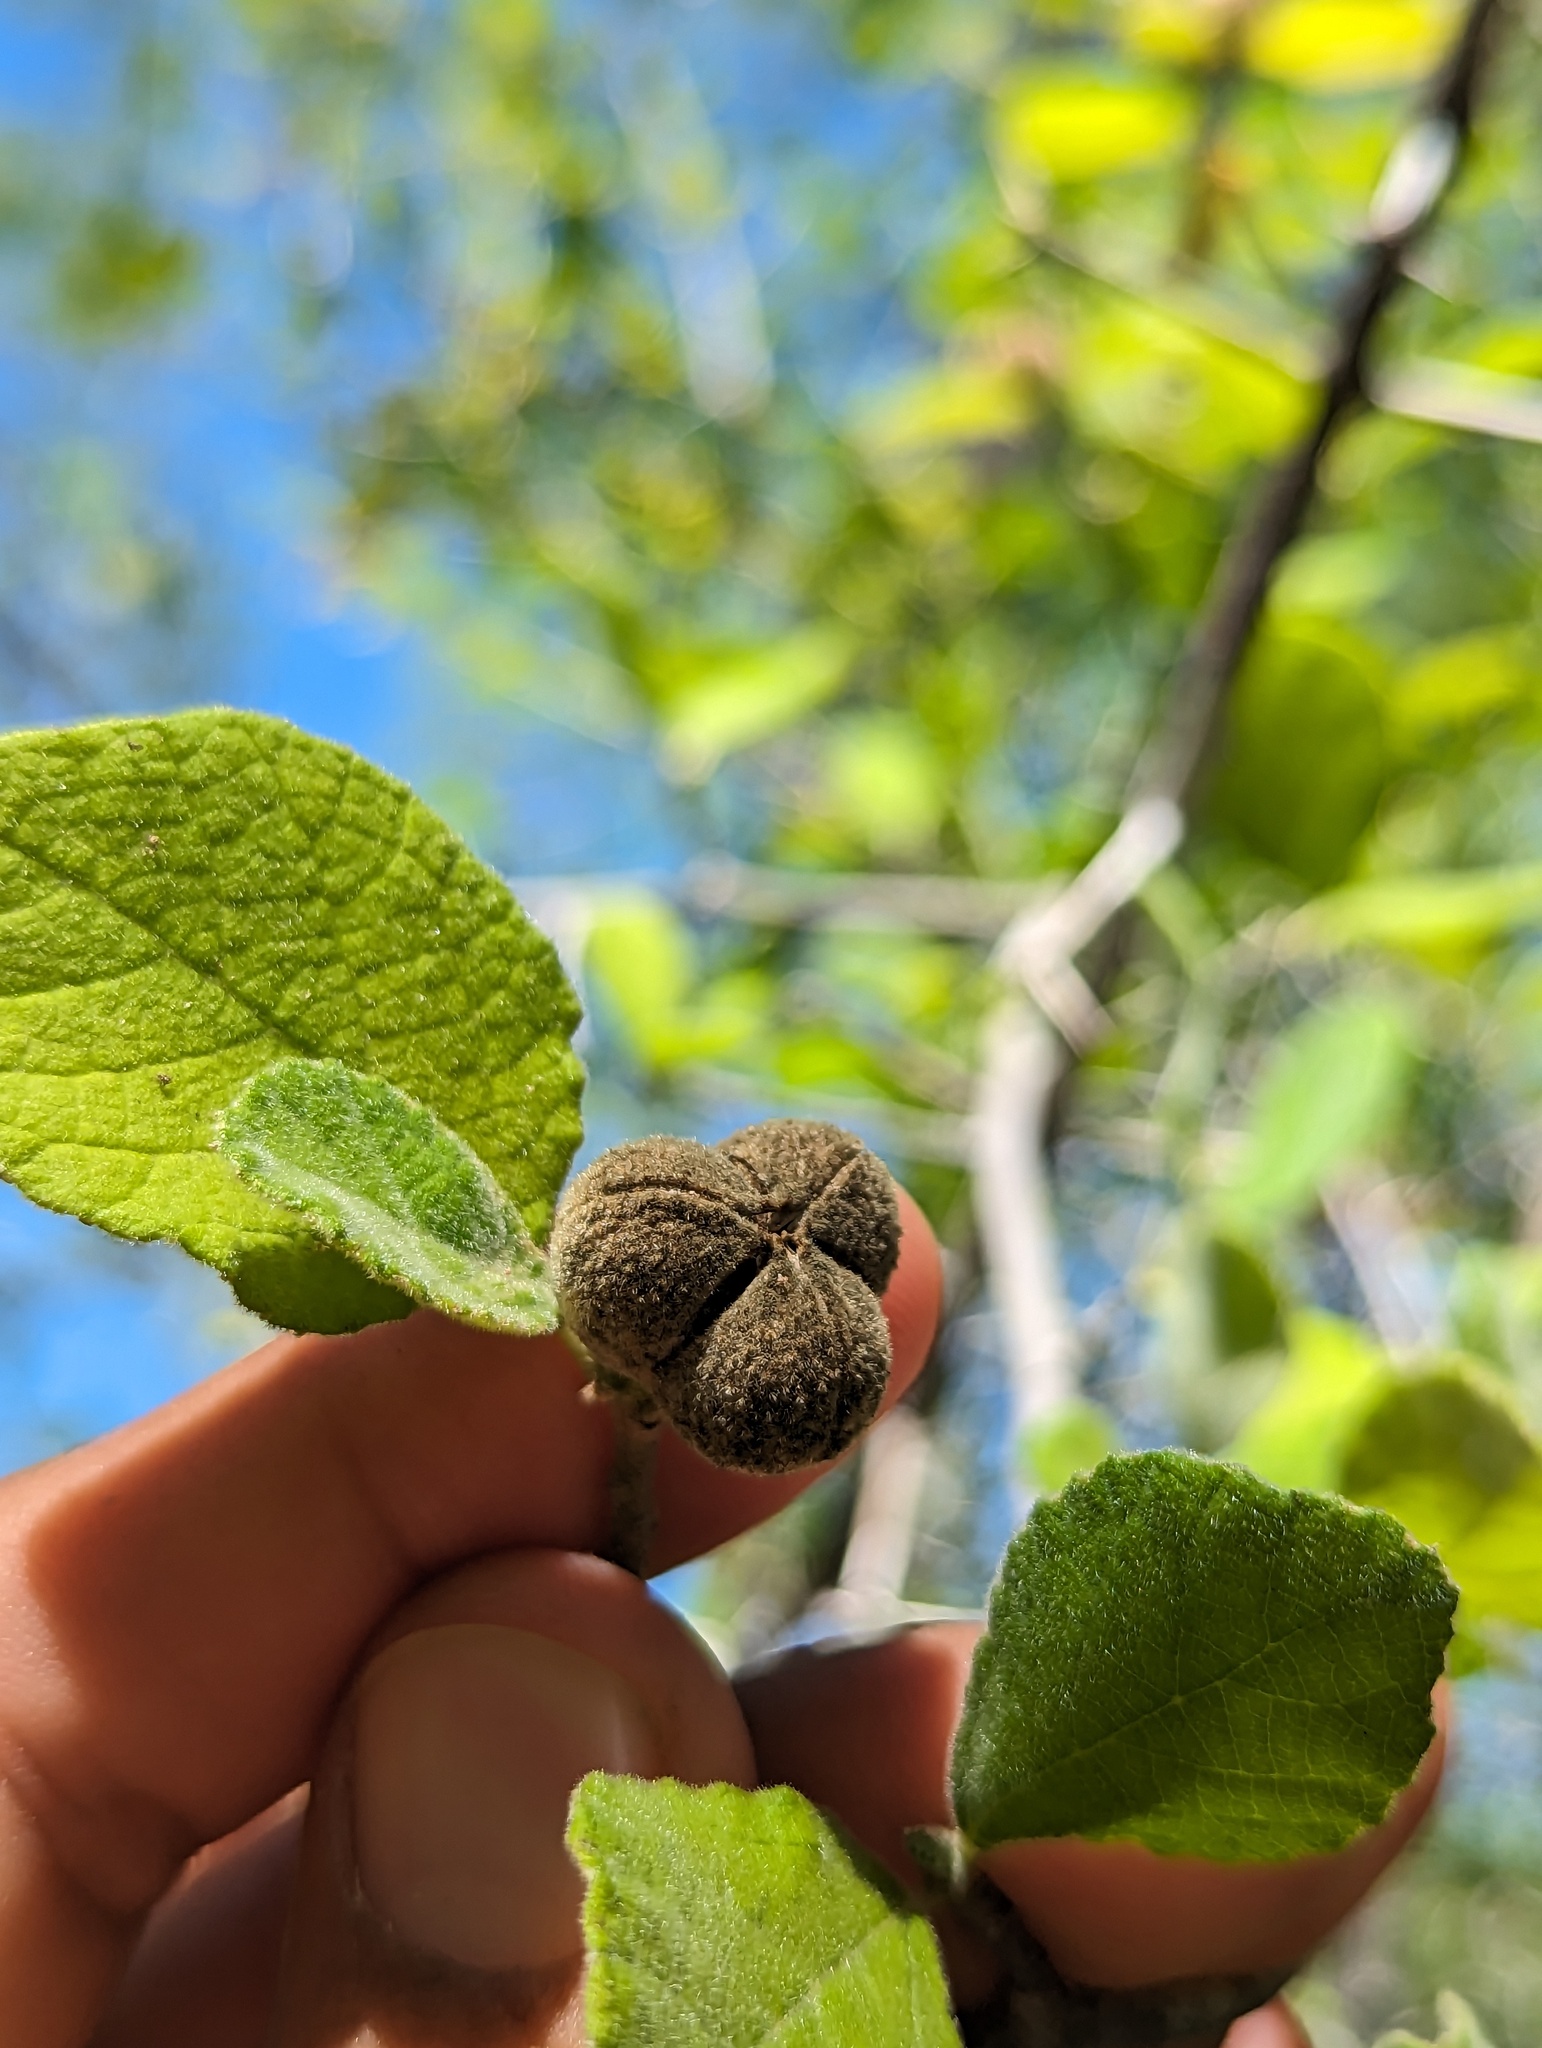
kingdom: Plantae
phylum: Tracheophyta
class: Magnoliopsida
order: Malpighiales
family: Euphorbiaceae
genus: Bernardia
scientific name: Bernardia viridis
